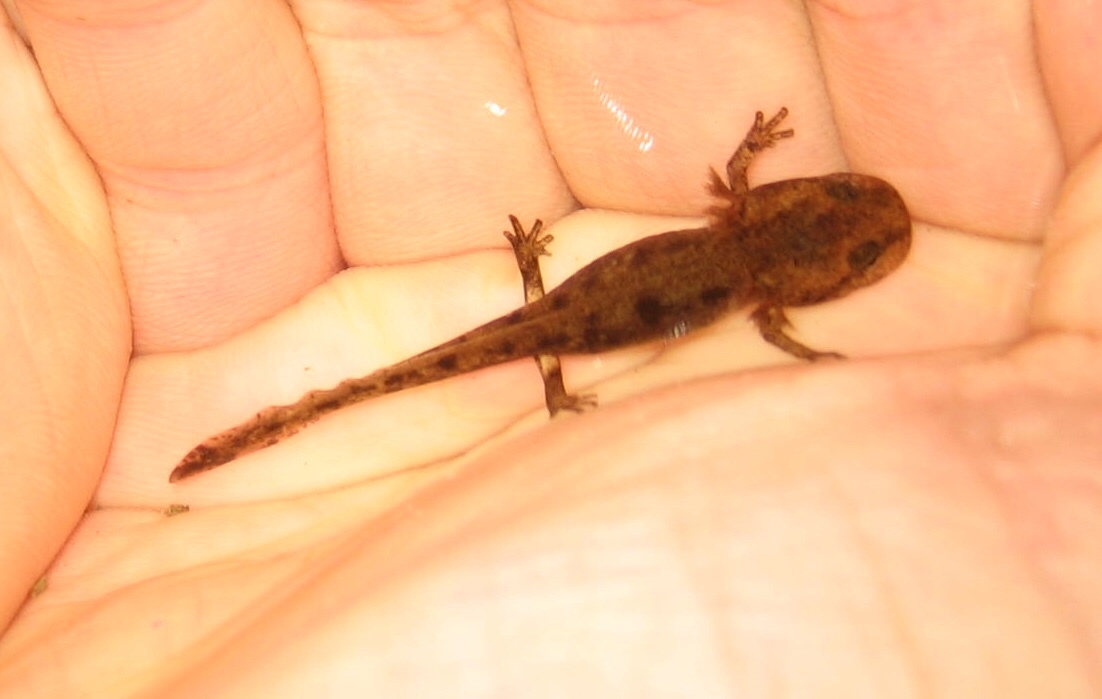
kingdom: Animalia
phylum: Chordata
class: Amphibia
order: Caudata
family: Salamandridae
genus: Salamandra
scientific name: Salamandra salamandra
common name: Fire salamander
